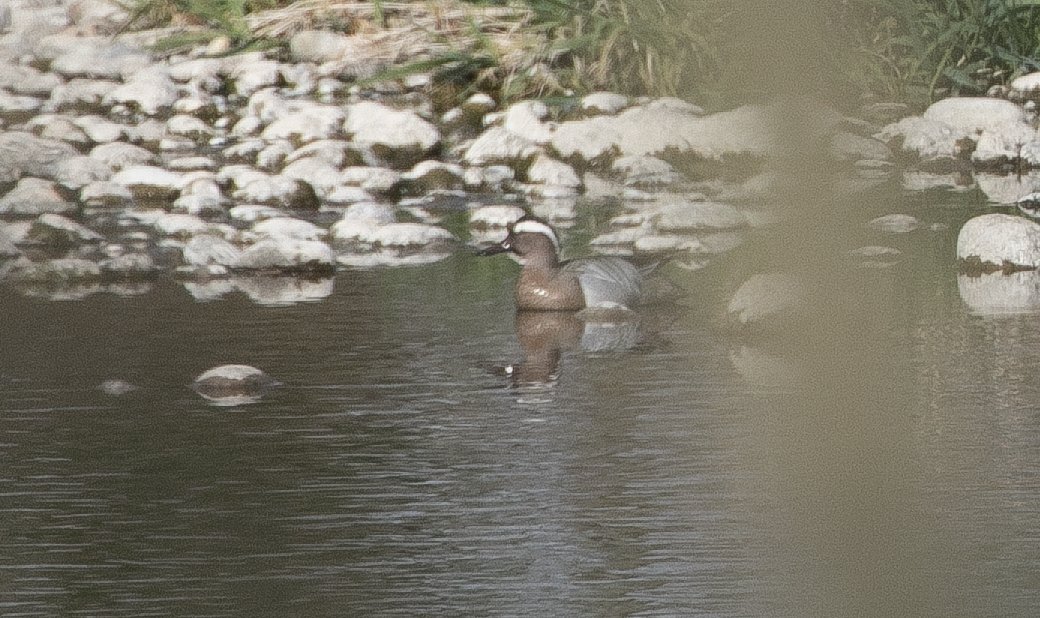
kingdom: Animalia
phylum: Chordata
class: Aves
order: Anseriformes
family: Anatidae
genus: Spatula
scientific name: Spatula querquedula
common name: Garganey
